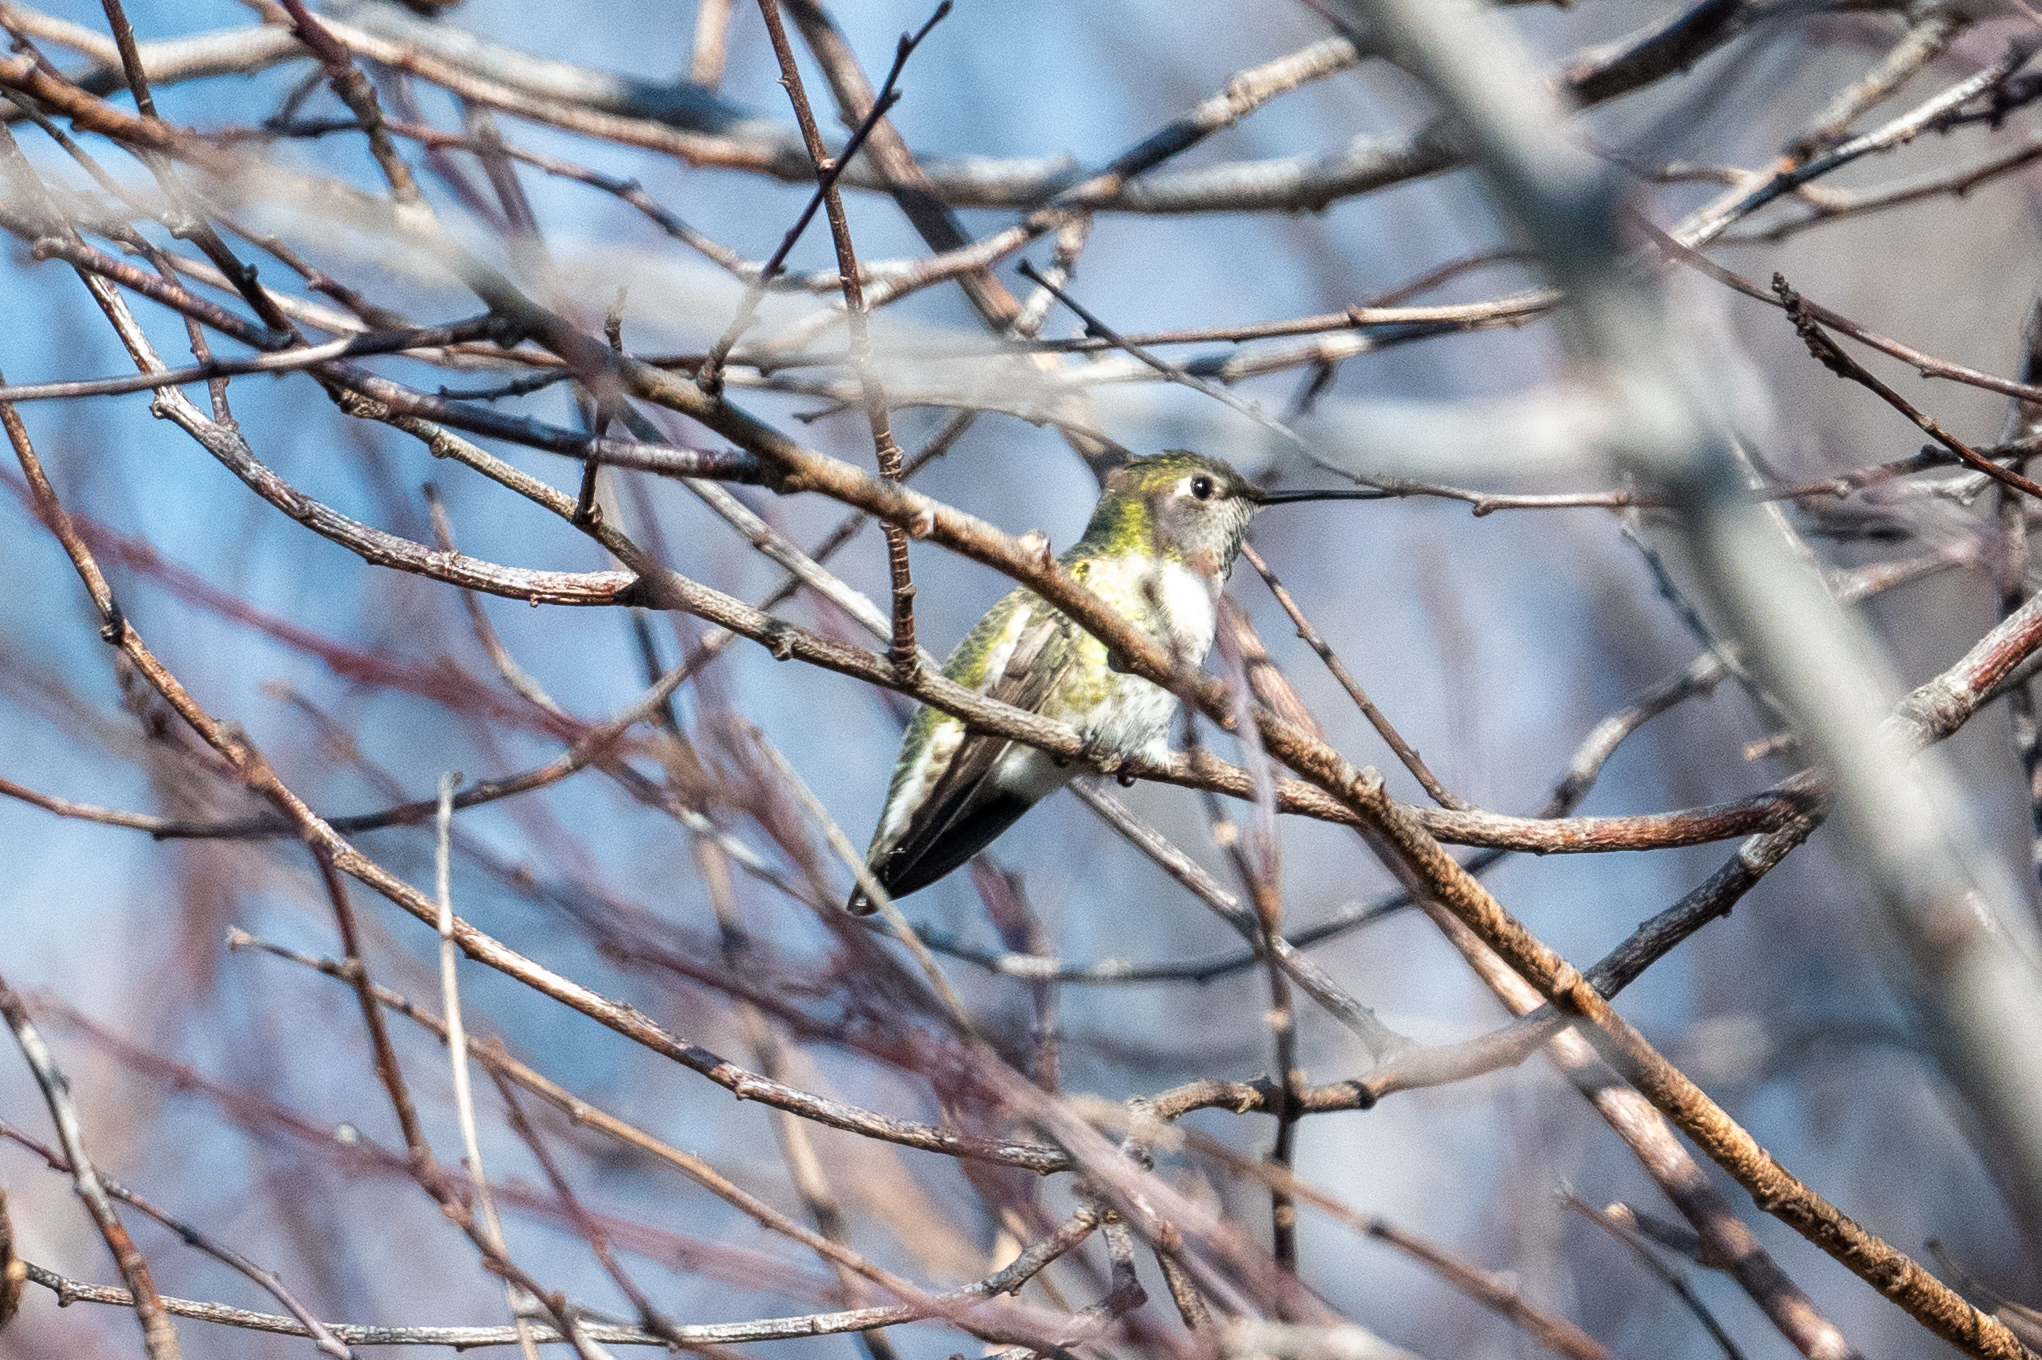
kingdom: Animalia
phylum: Chordata
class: Aves
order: Apodiformes
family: Trochilidae
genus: Calypte
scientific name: Calypte anna
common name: Anna's hummingbird
